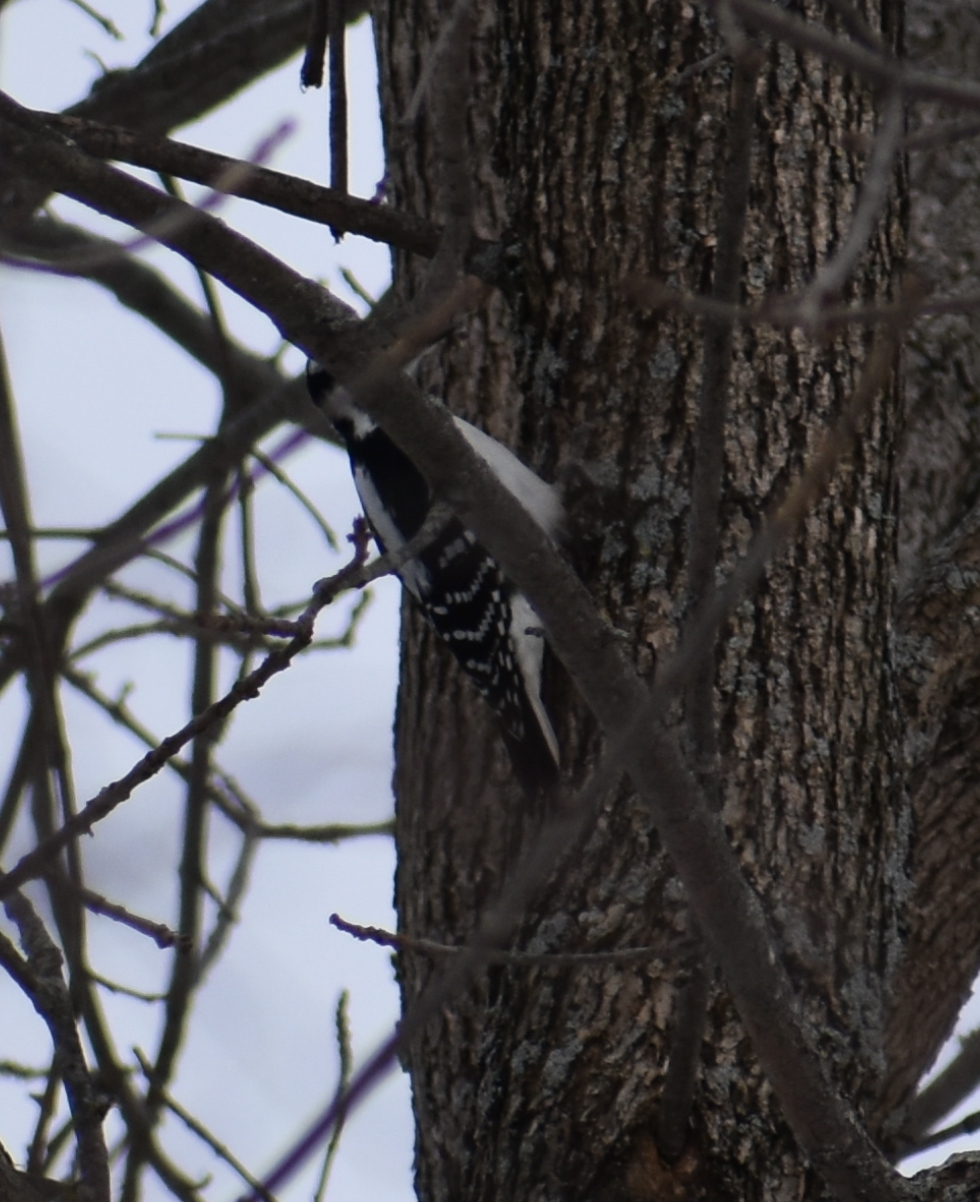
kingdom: Animalia
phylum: Chordata
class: Aves
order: Piciformes
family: Picidae
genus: Leuconotopicus
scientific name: Leuconotopicus villosus
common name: Hairy woodpecker
